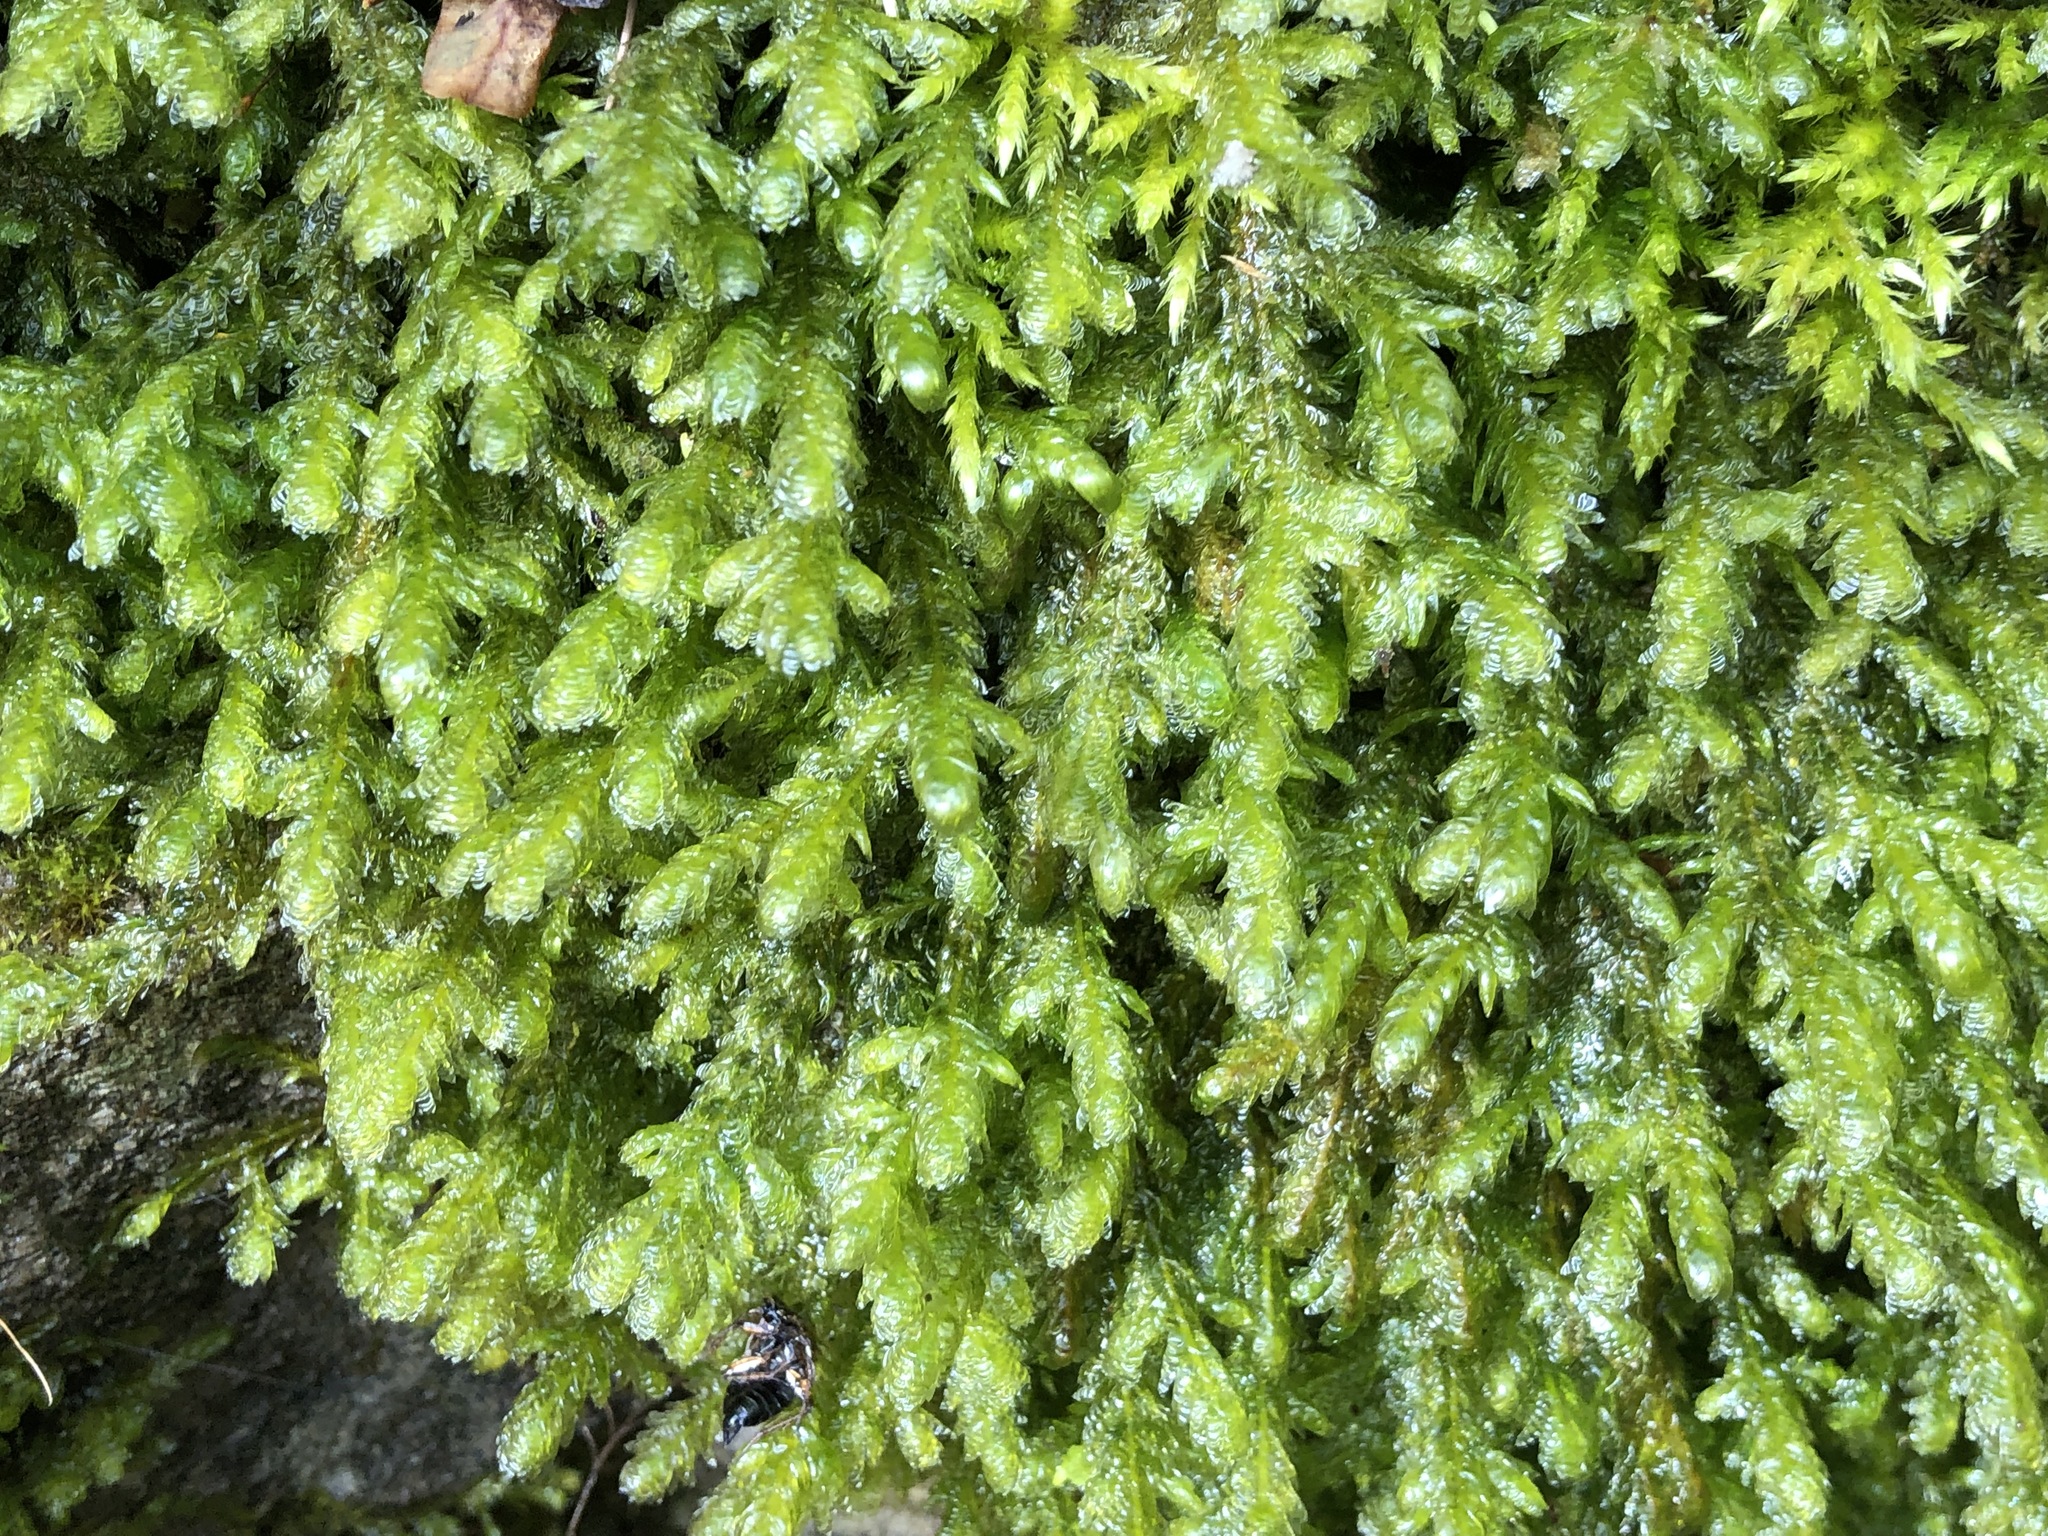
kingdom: Plantae
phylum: Bryophyta
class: Bryopsida
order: Hypnales
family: Neckeraceae
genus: Exsertotheca
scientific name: Exsertotheca crispa
